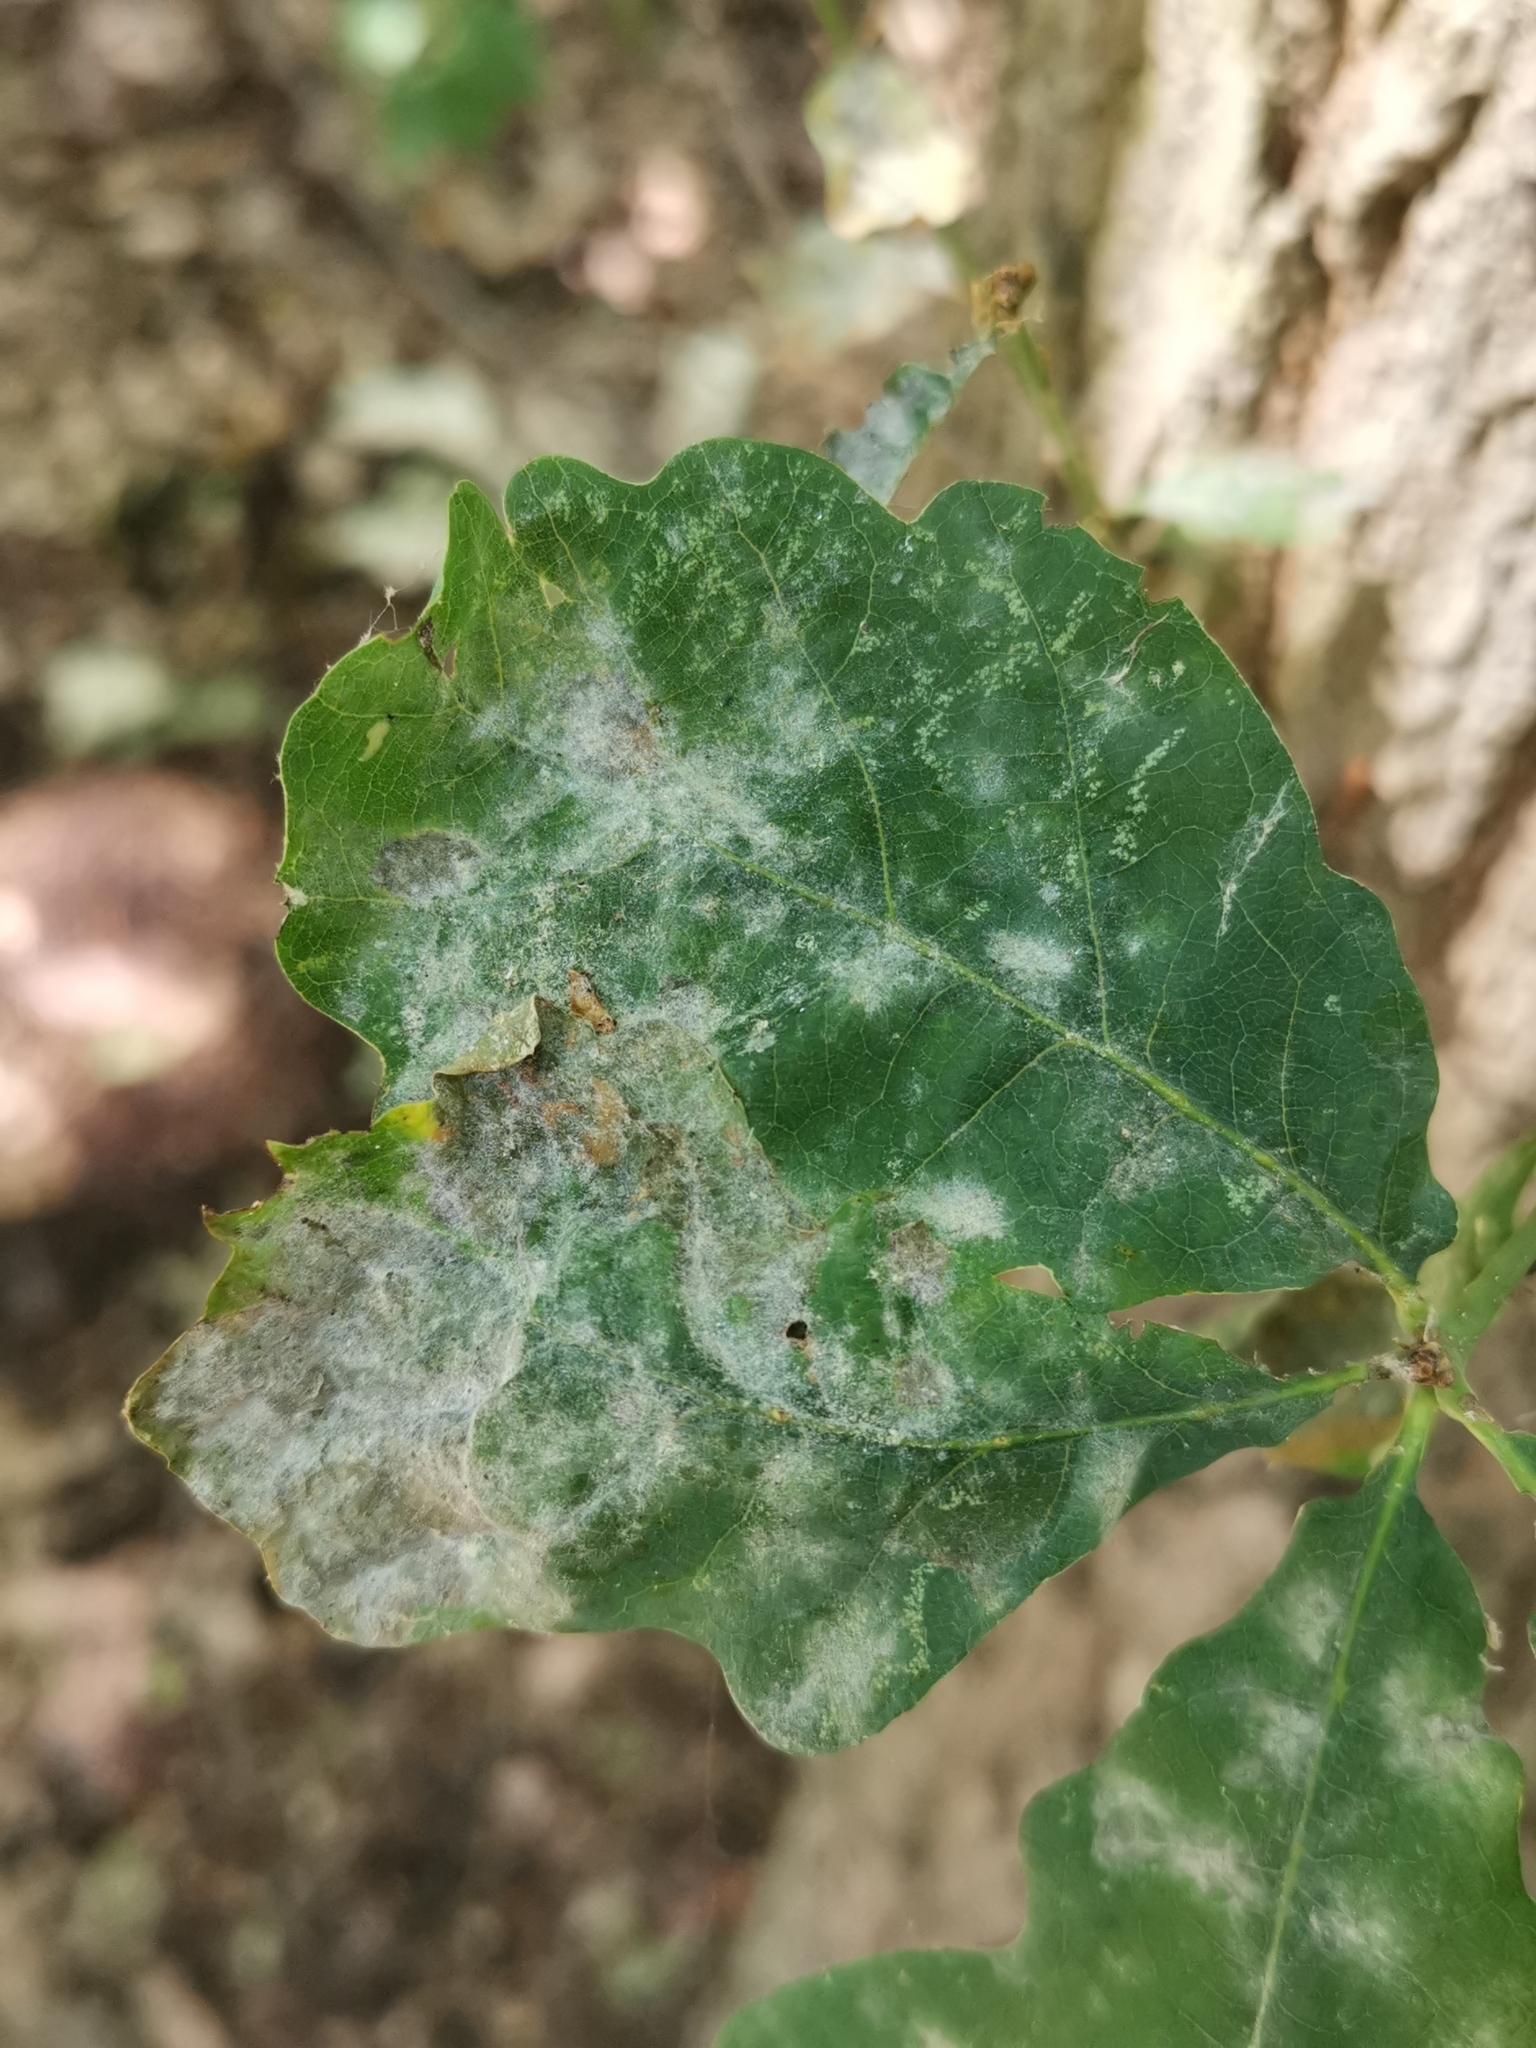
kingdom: Fungi
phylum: Ascomycota
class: Leotiomycetes
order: Helotiales
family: Erysiphaceae
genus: Erysiphe
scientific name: Erysiphe
